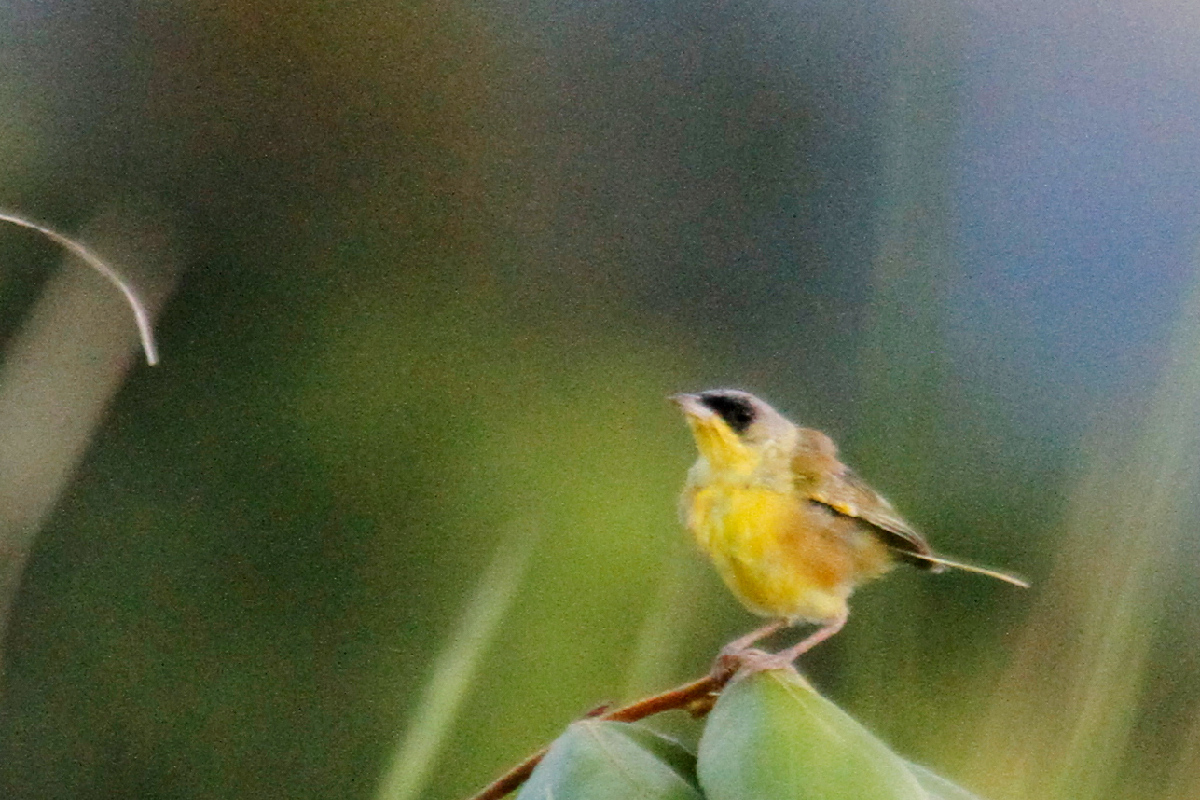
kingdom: Animalia
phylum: Chordata
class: Aves
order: Passeriformes
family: Parulidae
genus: Geothlypis
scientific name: Geothlypis poliocephala
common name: Gray-crowned yellowthroat
